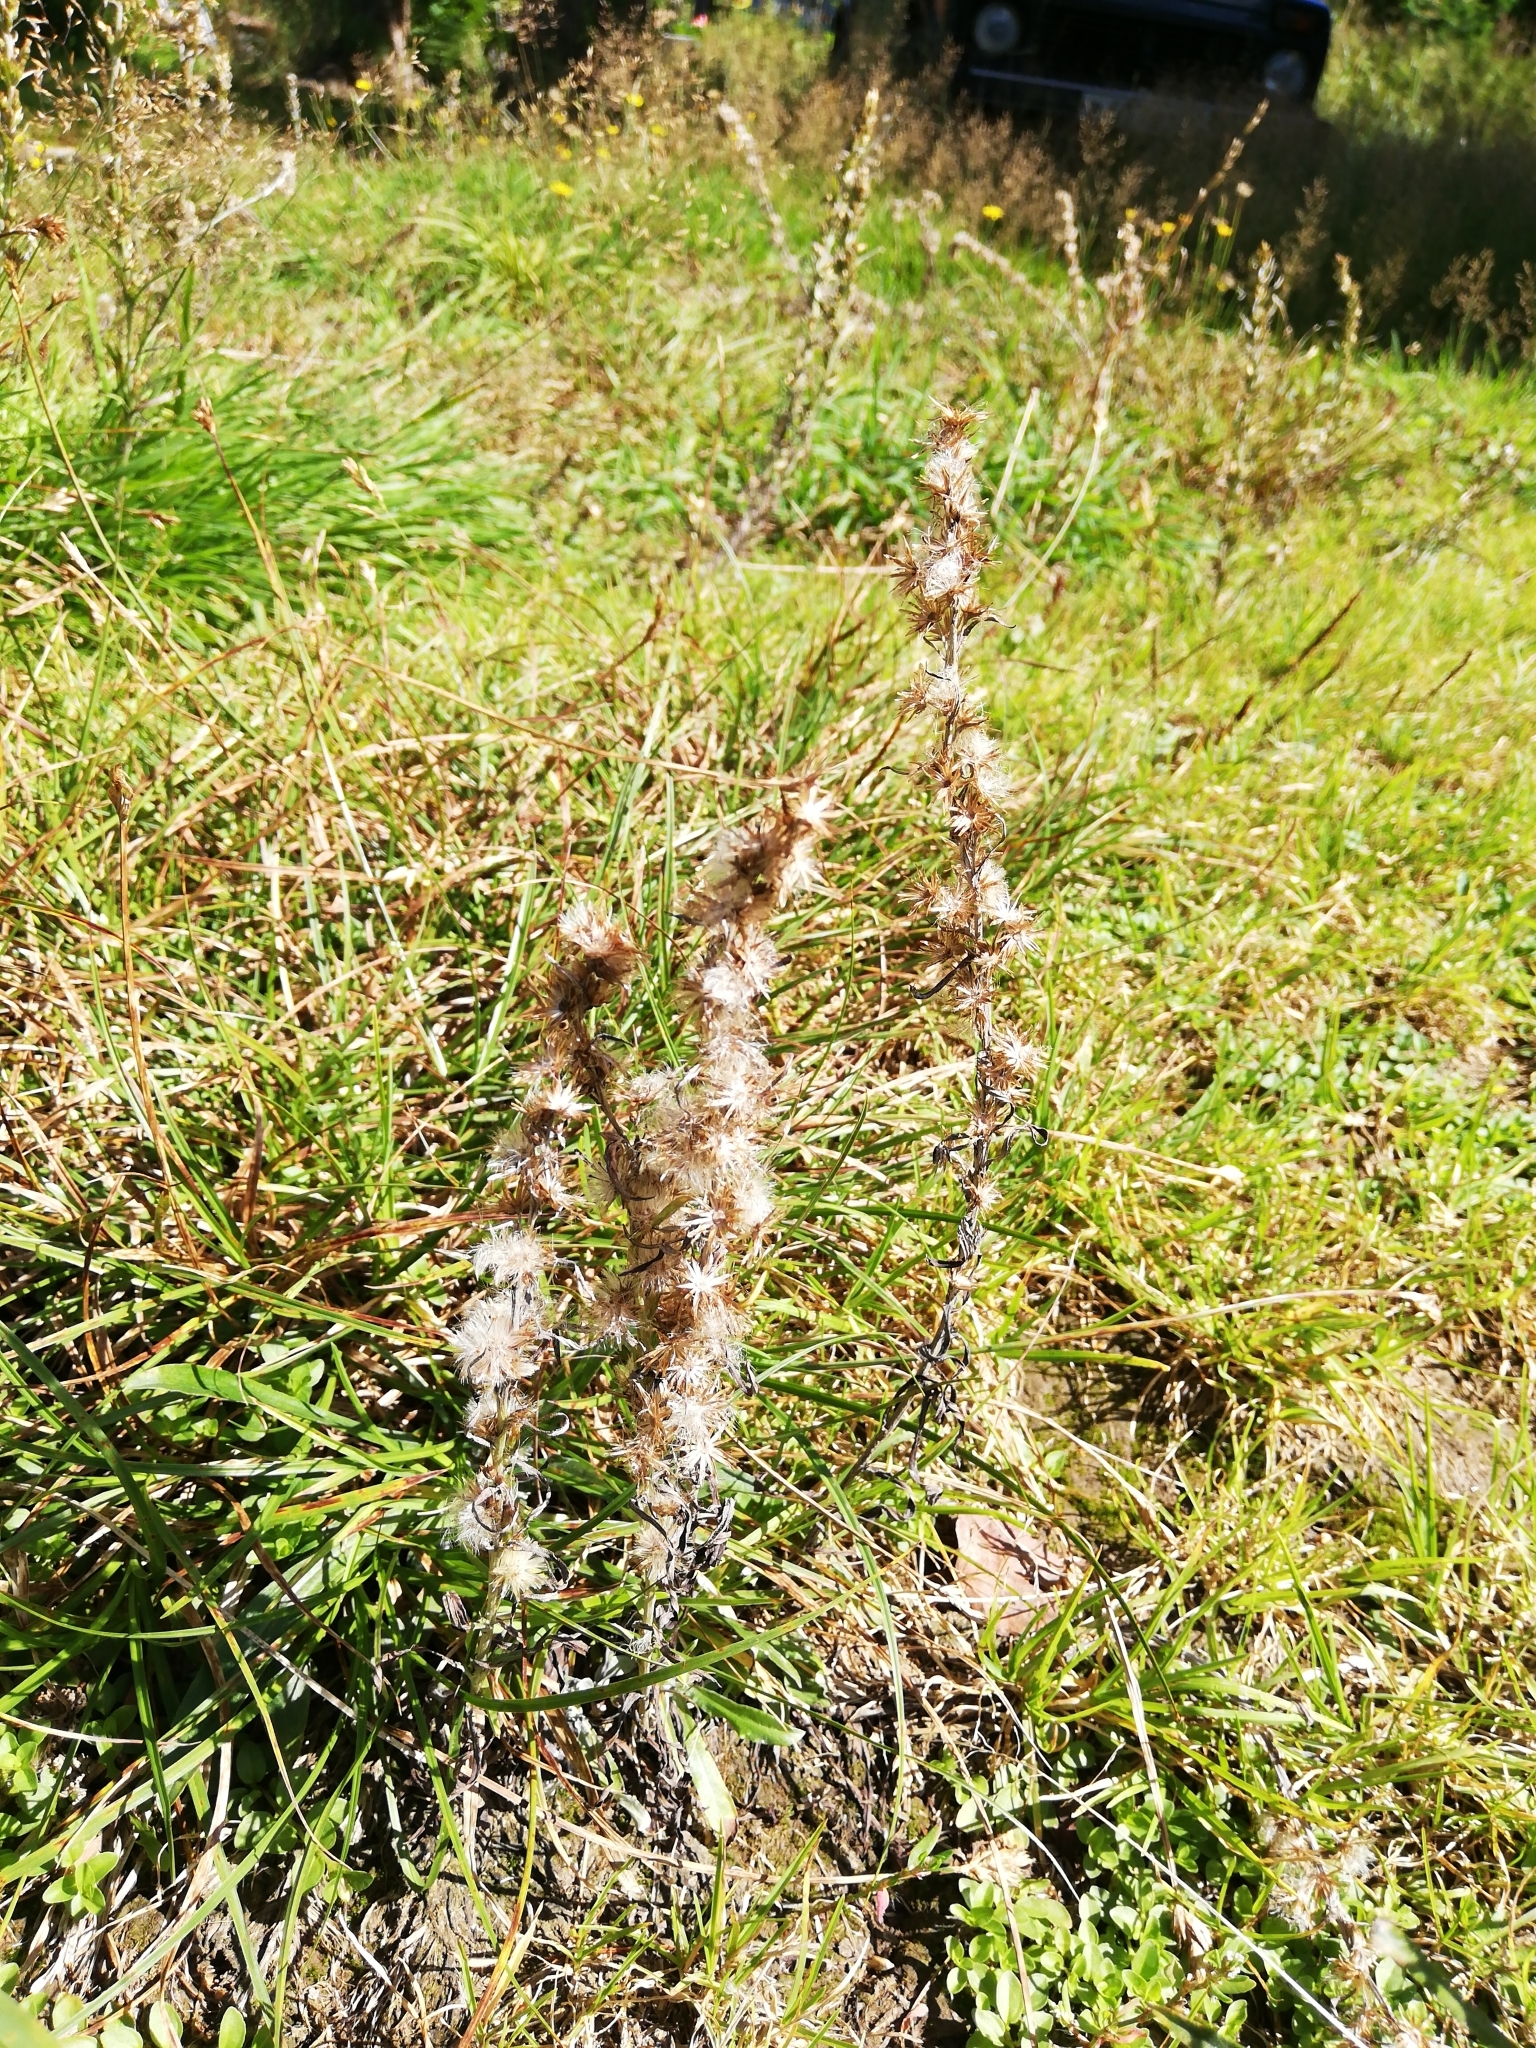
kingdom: Plantae
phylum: Tracheophyta
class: Magnoliopsida
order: Asterales
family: Asteraceae
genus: Omalotheca
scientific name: Omalotheca sylvatica
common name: Heath cudweed
